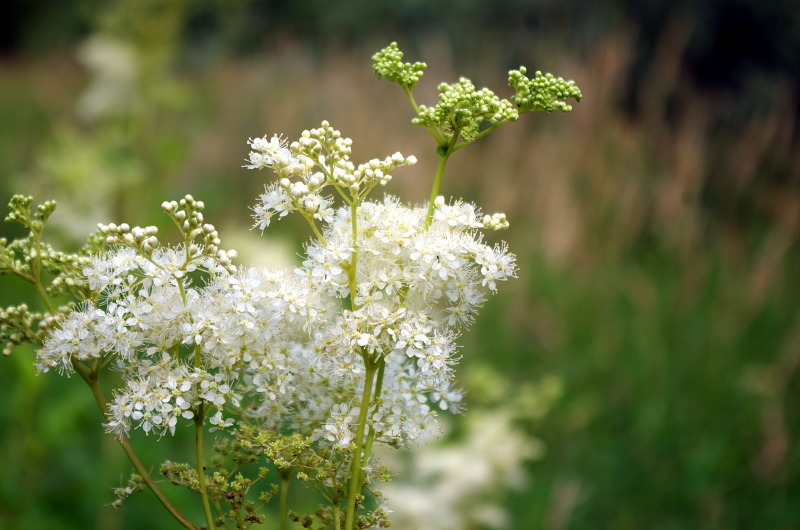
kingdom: Plantae
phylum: Tracheophyta
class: Magnoliopsida
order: Rosales
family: Rosaceae
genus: Filipendula
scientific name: Filipendula ulmaria
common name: Meadowsweet
